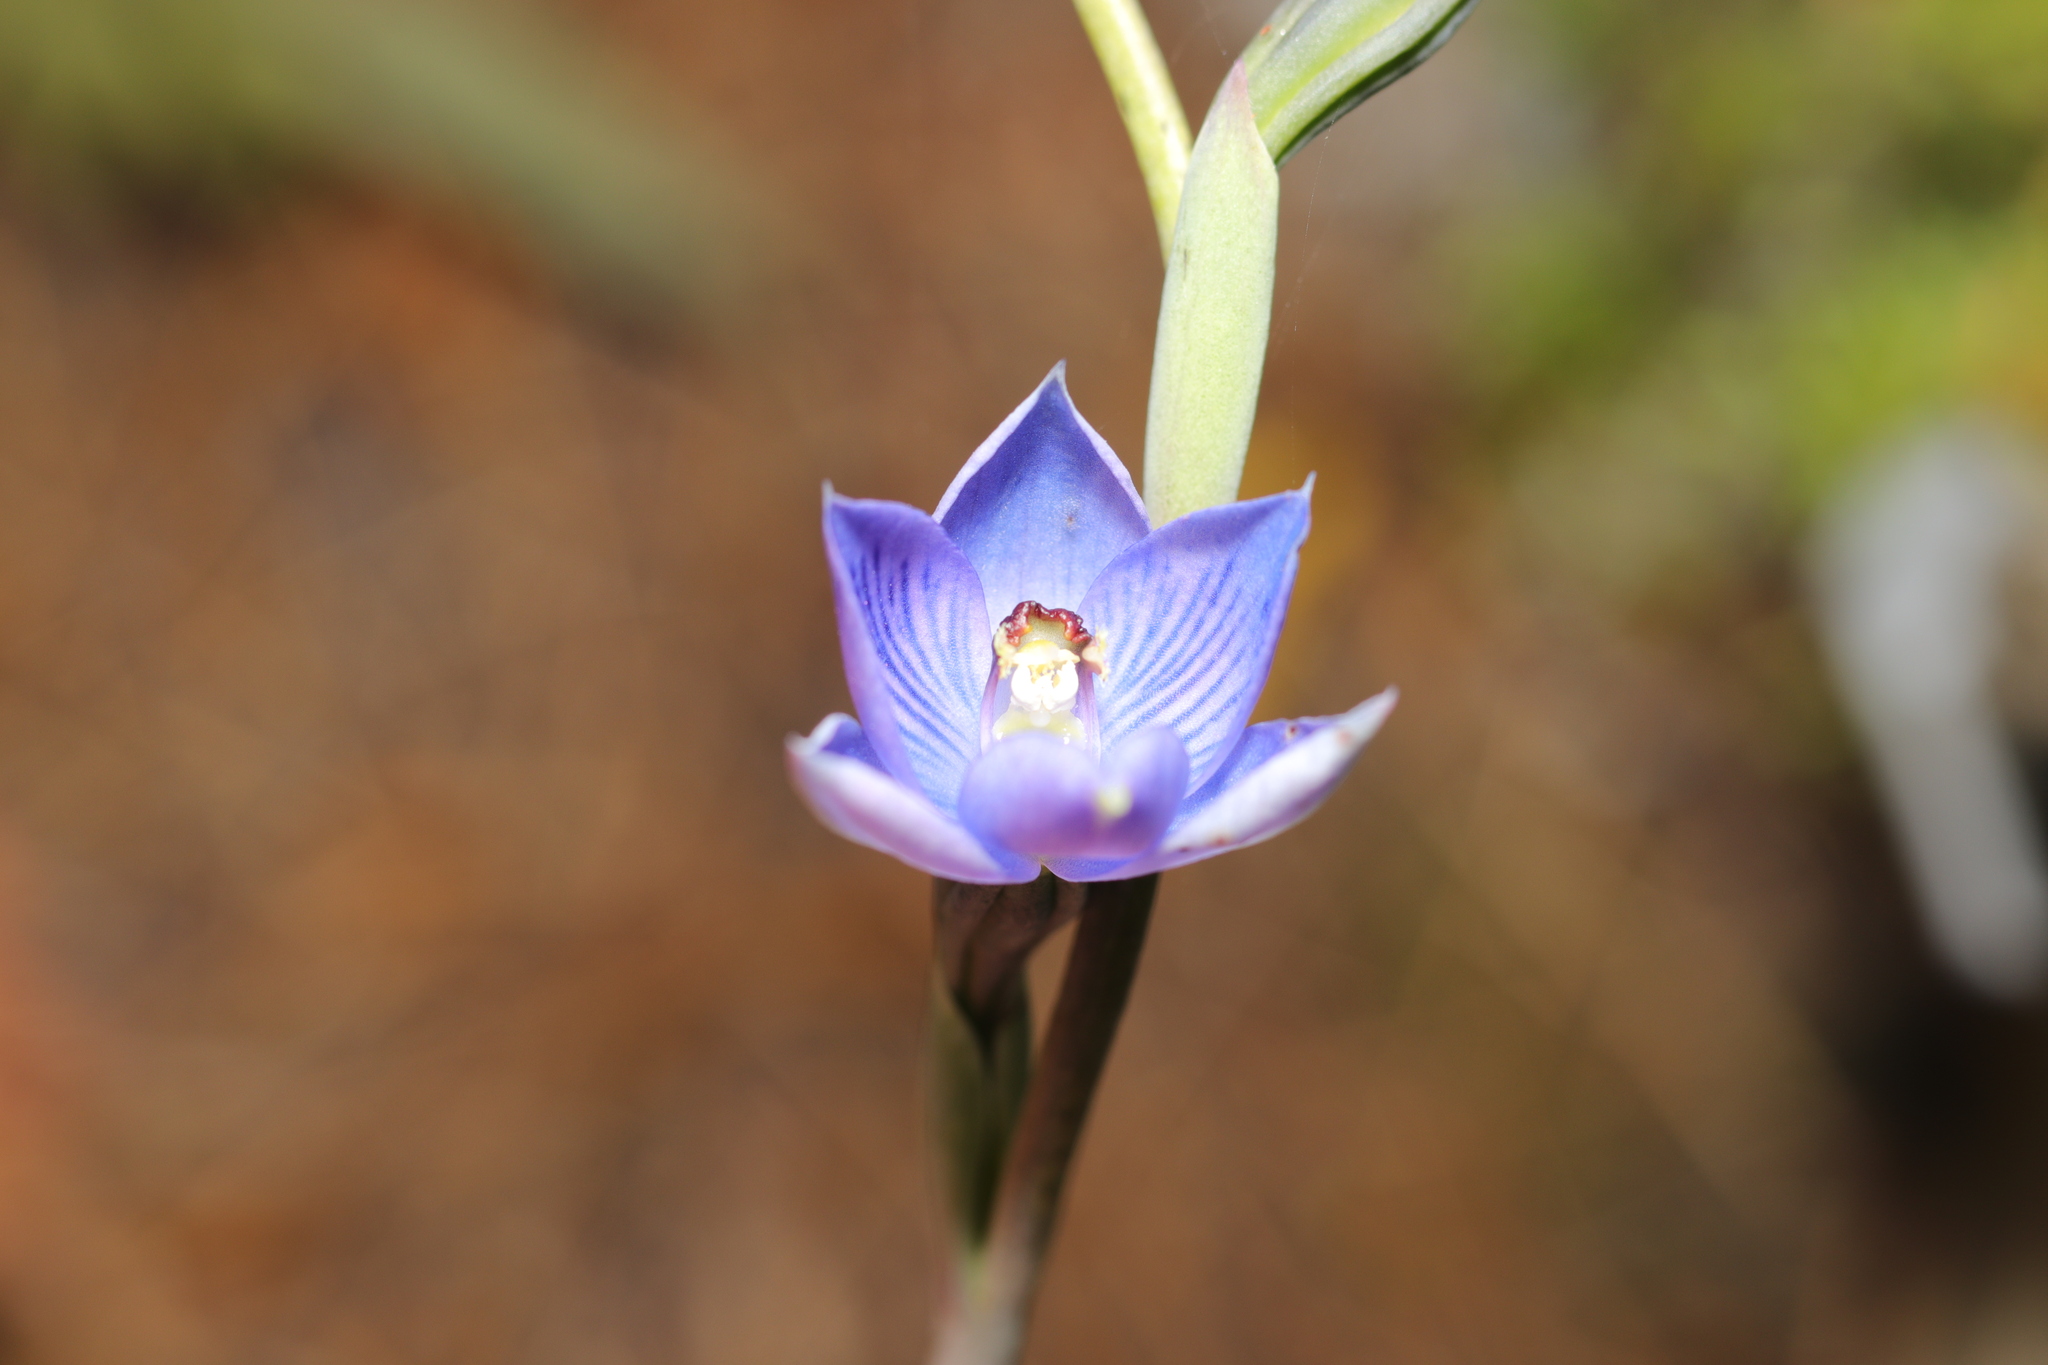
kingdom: Plantae
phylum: Tracheophyta
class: Liliopsida
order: Asparagales
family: Orchidaceae
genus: Thelymitra
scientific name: Thelymitra pulchella
